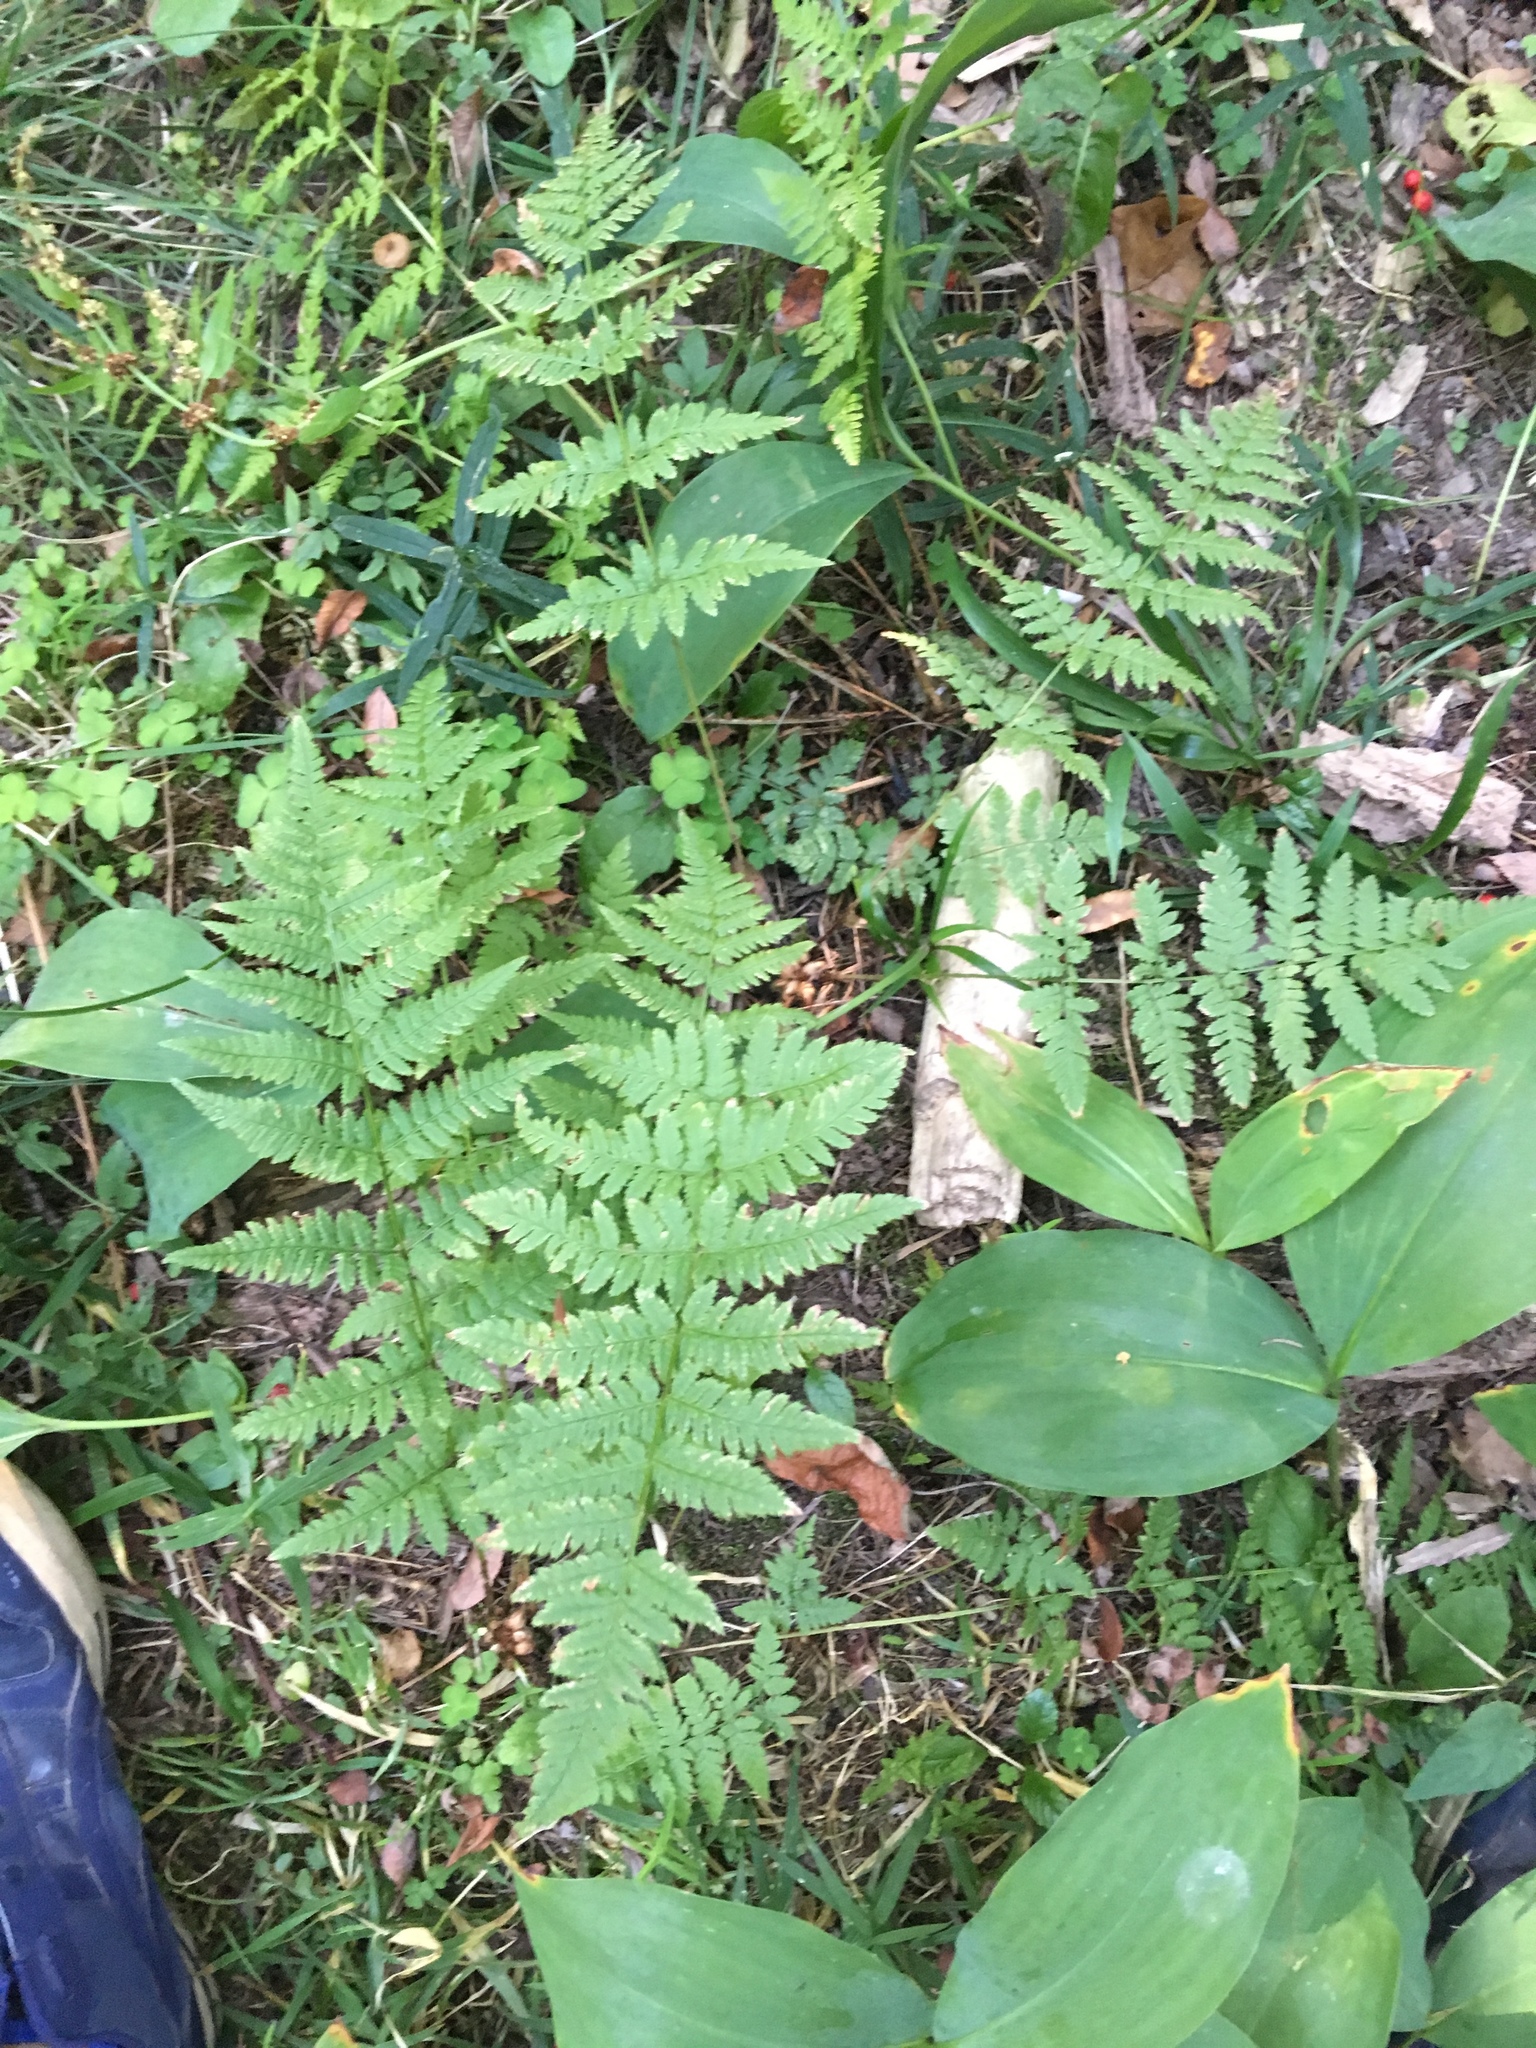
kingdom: Plantae
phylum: Tracheophyta
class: Polypodiopsida
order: Polypodiales
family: Dryopteridaceae
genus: Dryopteris
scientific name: Dryopteris carthusiana
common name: Narrow buckler-fern
